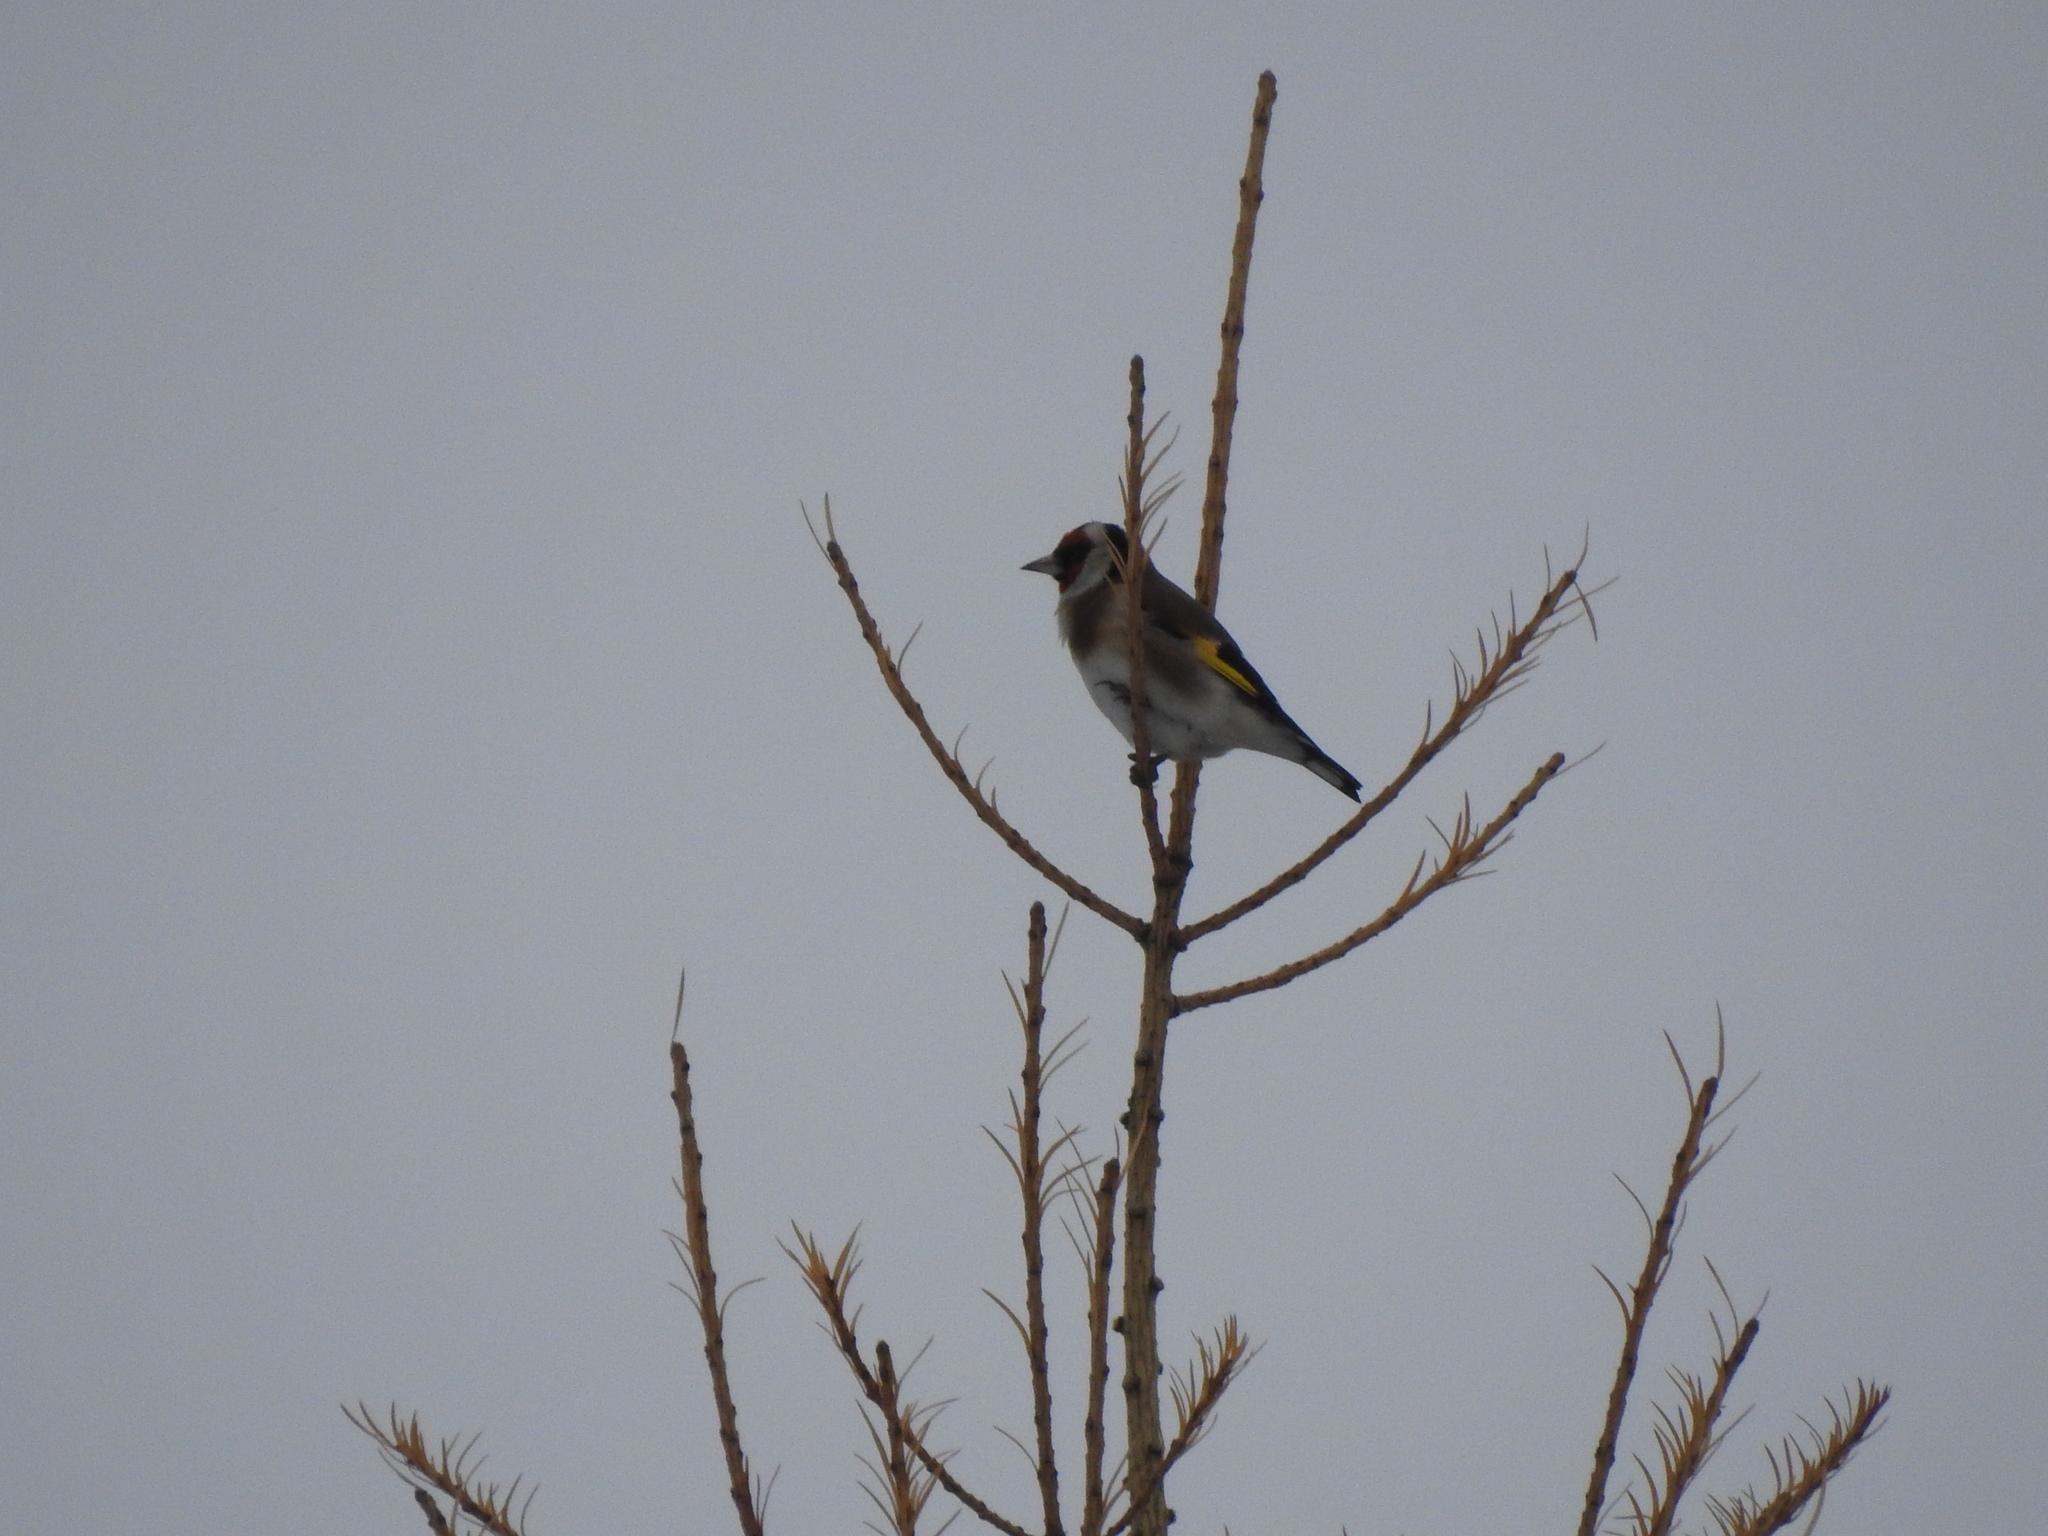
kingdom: Animalia
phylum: Chordata
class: Aves
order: Passeriformes
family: Fringillidae
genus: Carduelis
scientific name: Carduelis carduelis
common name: European goldfinch
